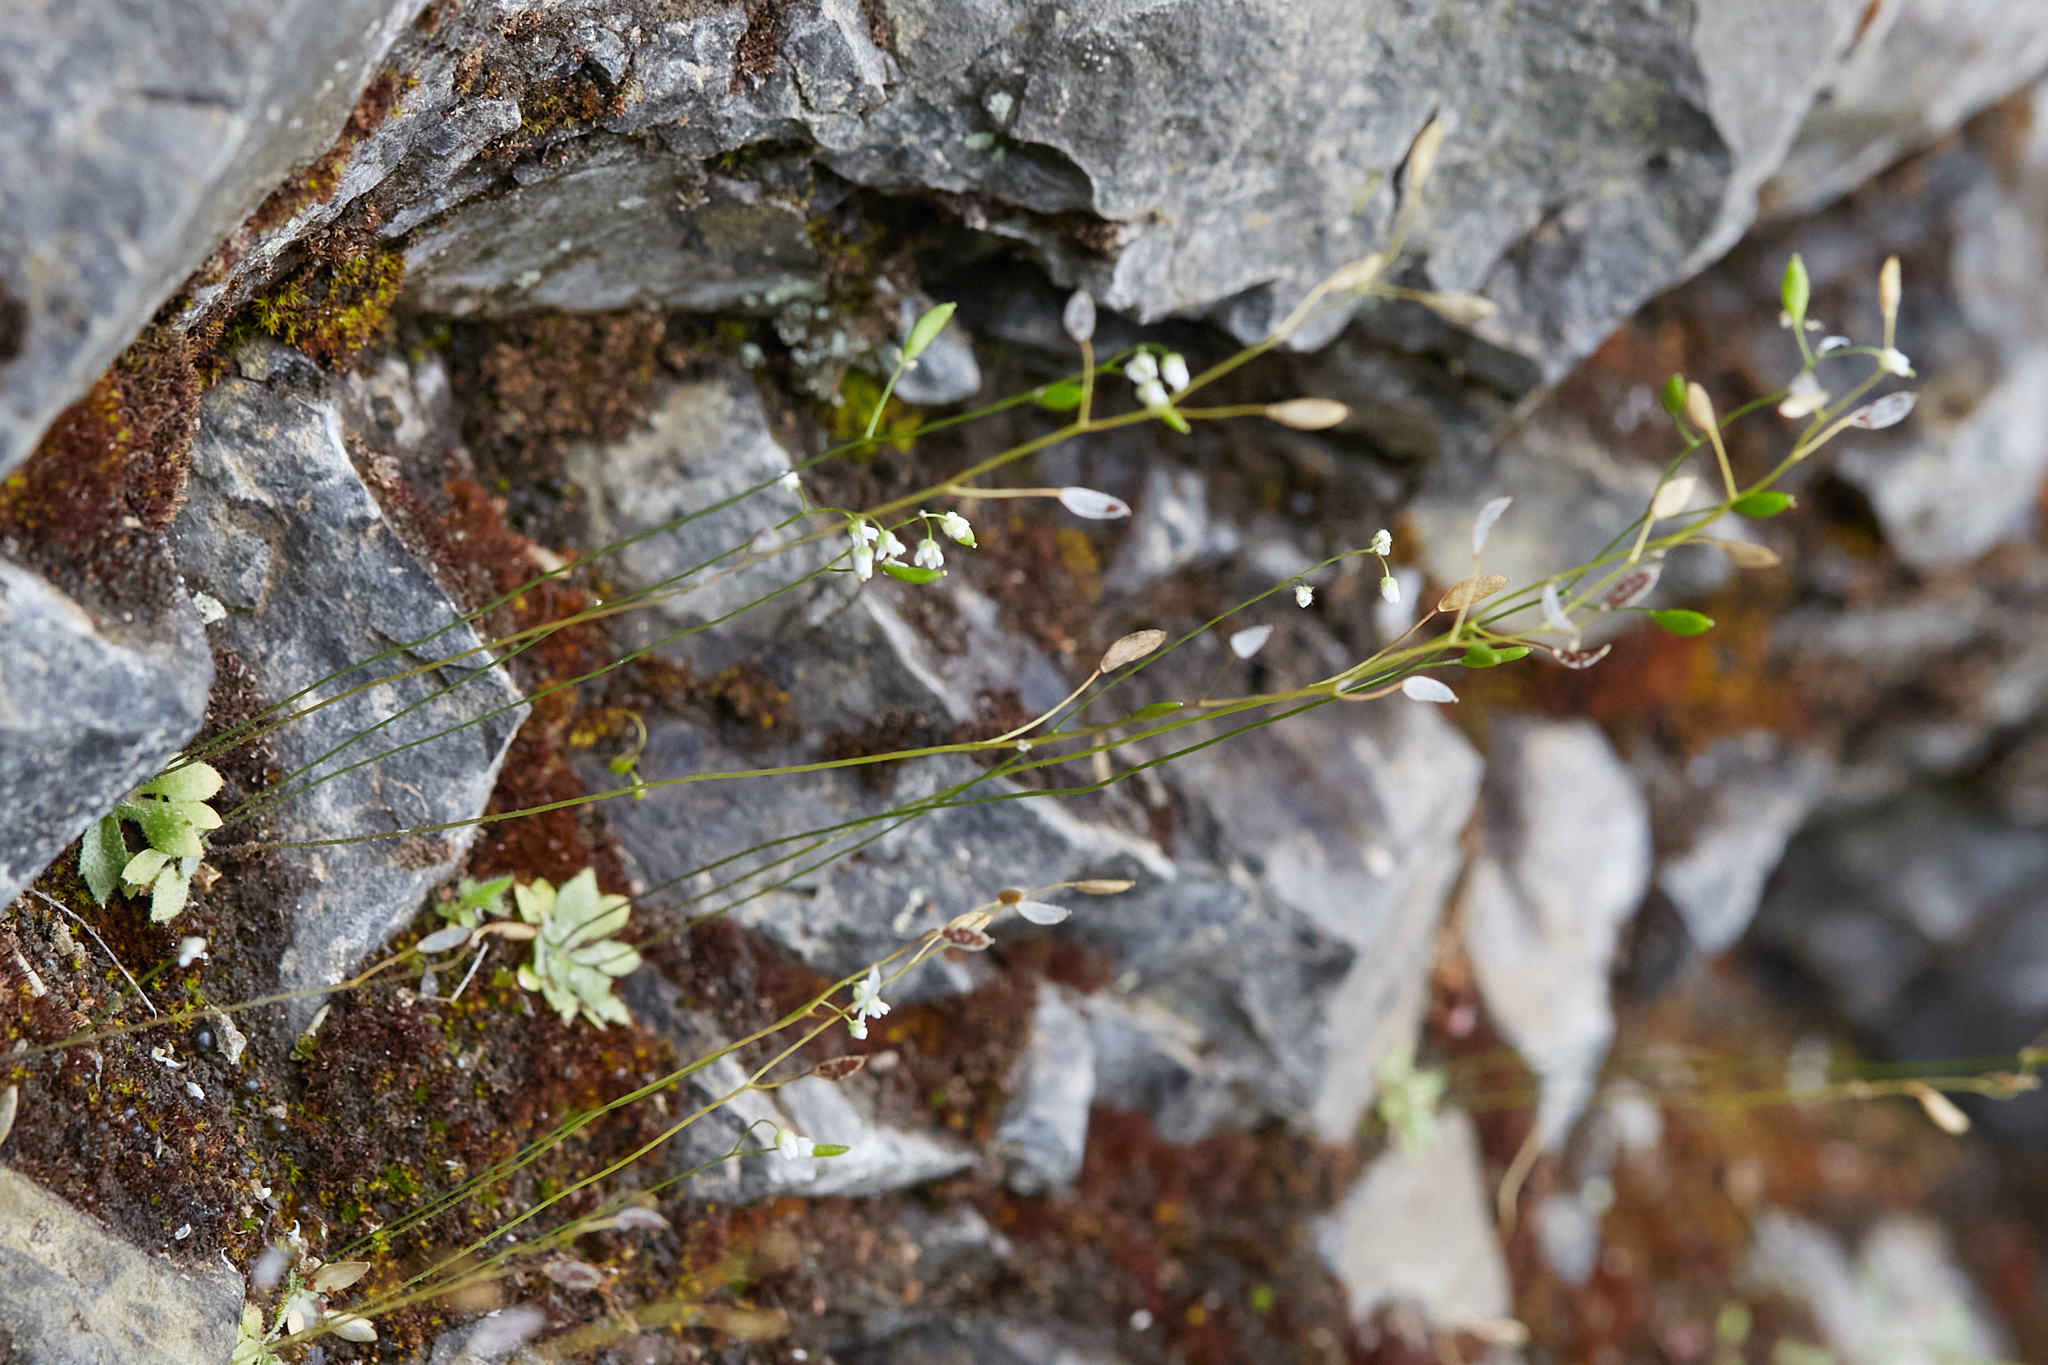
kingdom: Plantae
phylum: Tracheophyta
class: Magnoliopsida
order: Brassicales
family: Brassicaceae
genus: Draba
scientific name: Draba verna
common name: Spring draba
